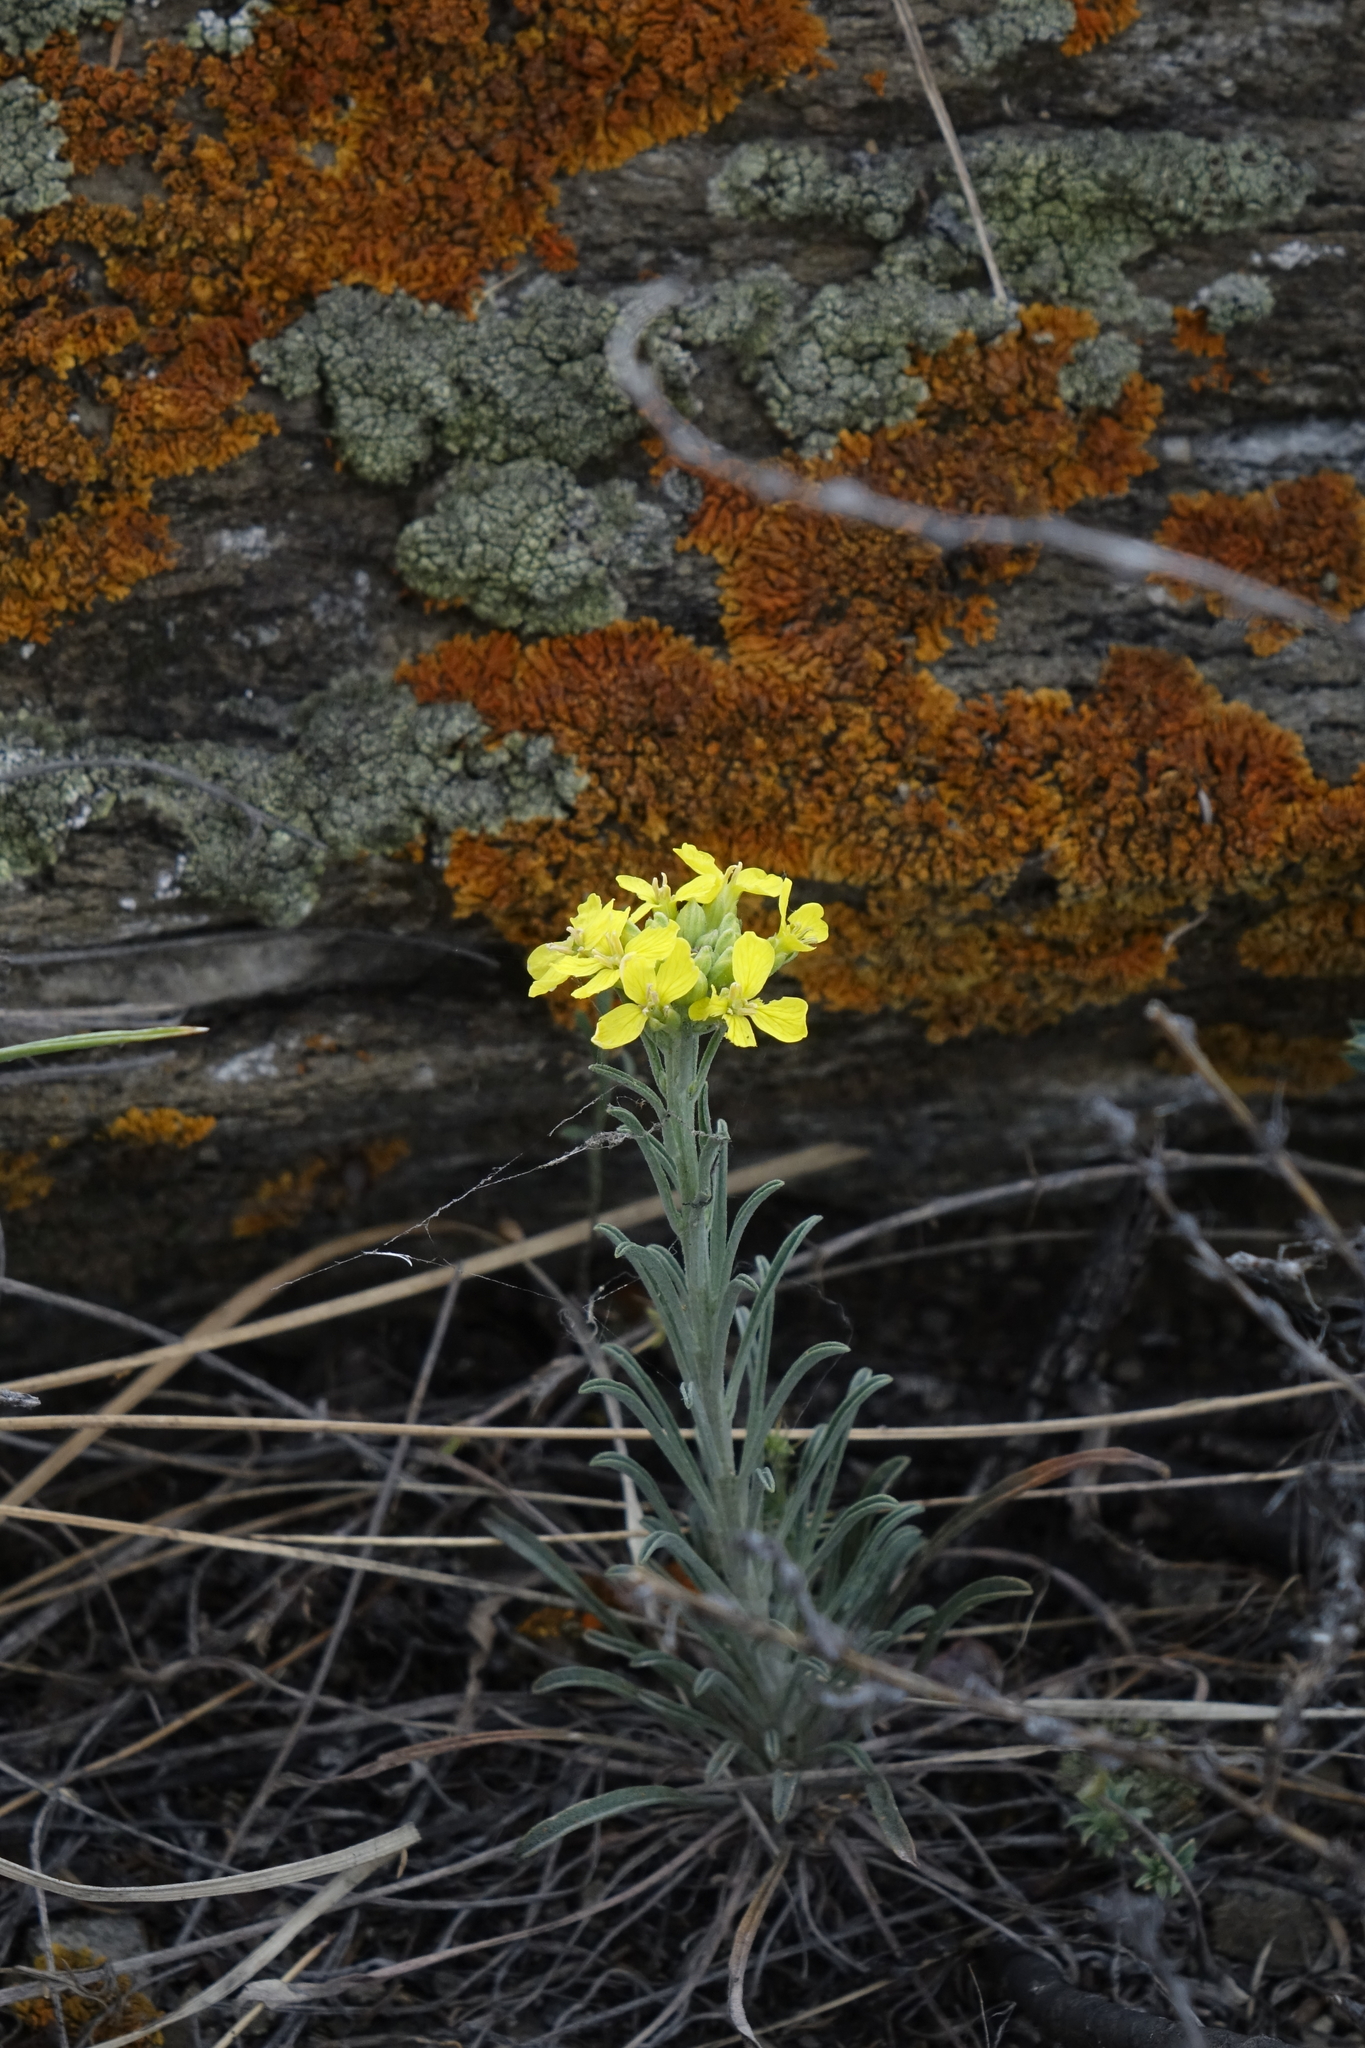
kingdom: Plantae
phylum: Tracheophyta
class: Magnoliopsida
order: Brassicales
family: Brassicaceae
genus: Erysimum
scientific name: Erysimum flavum
